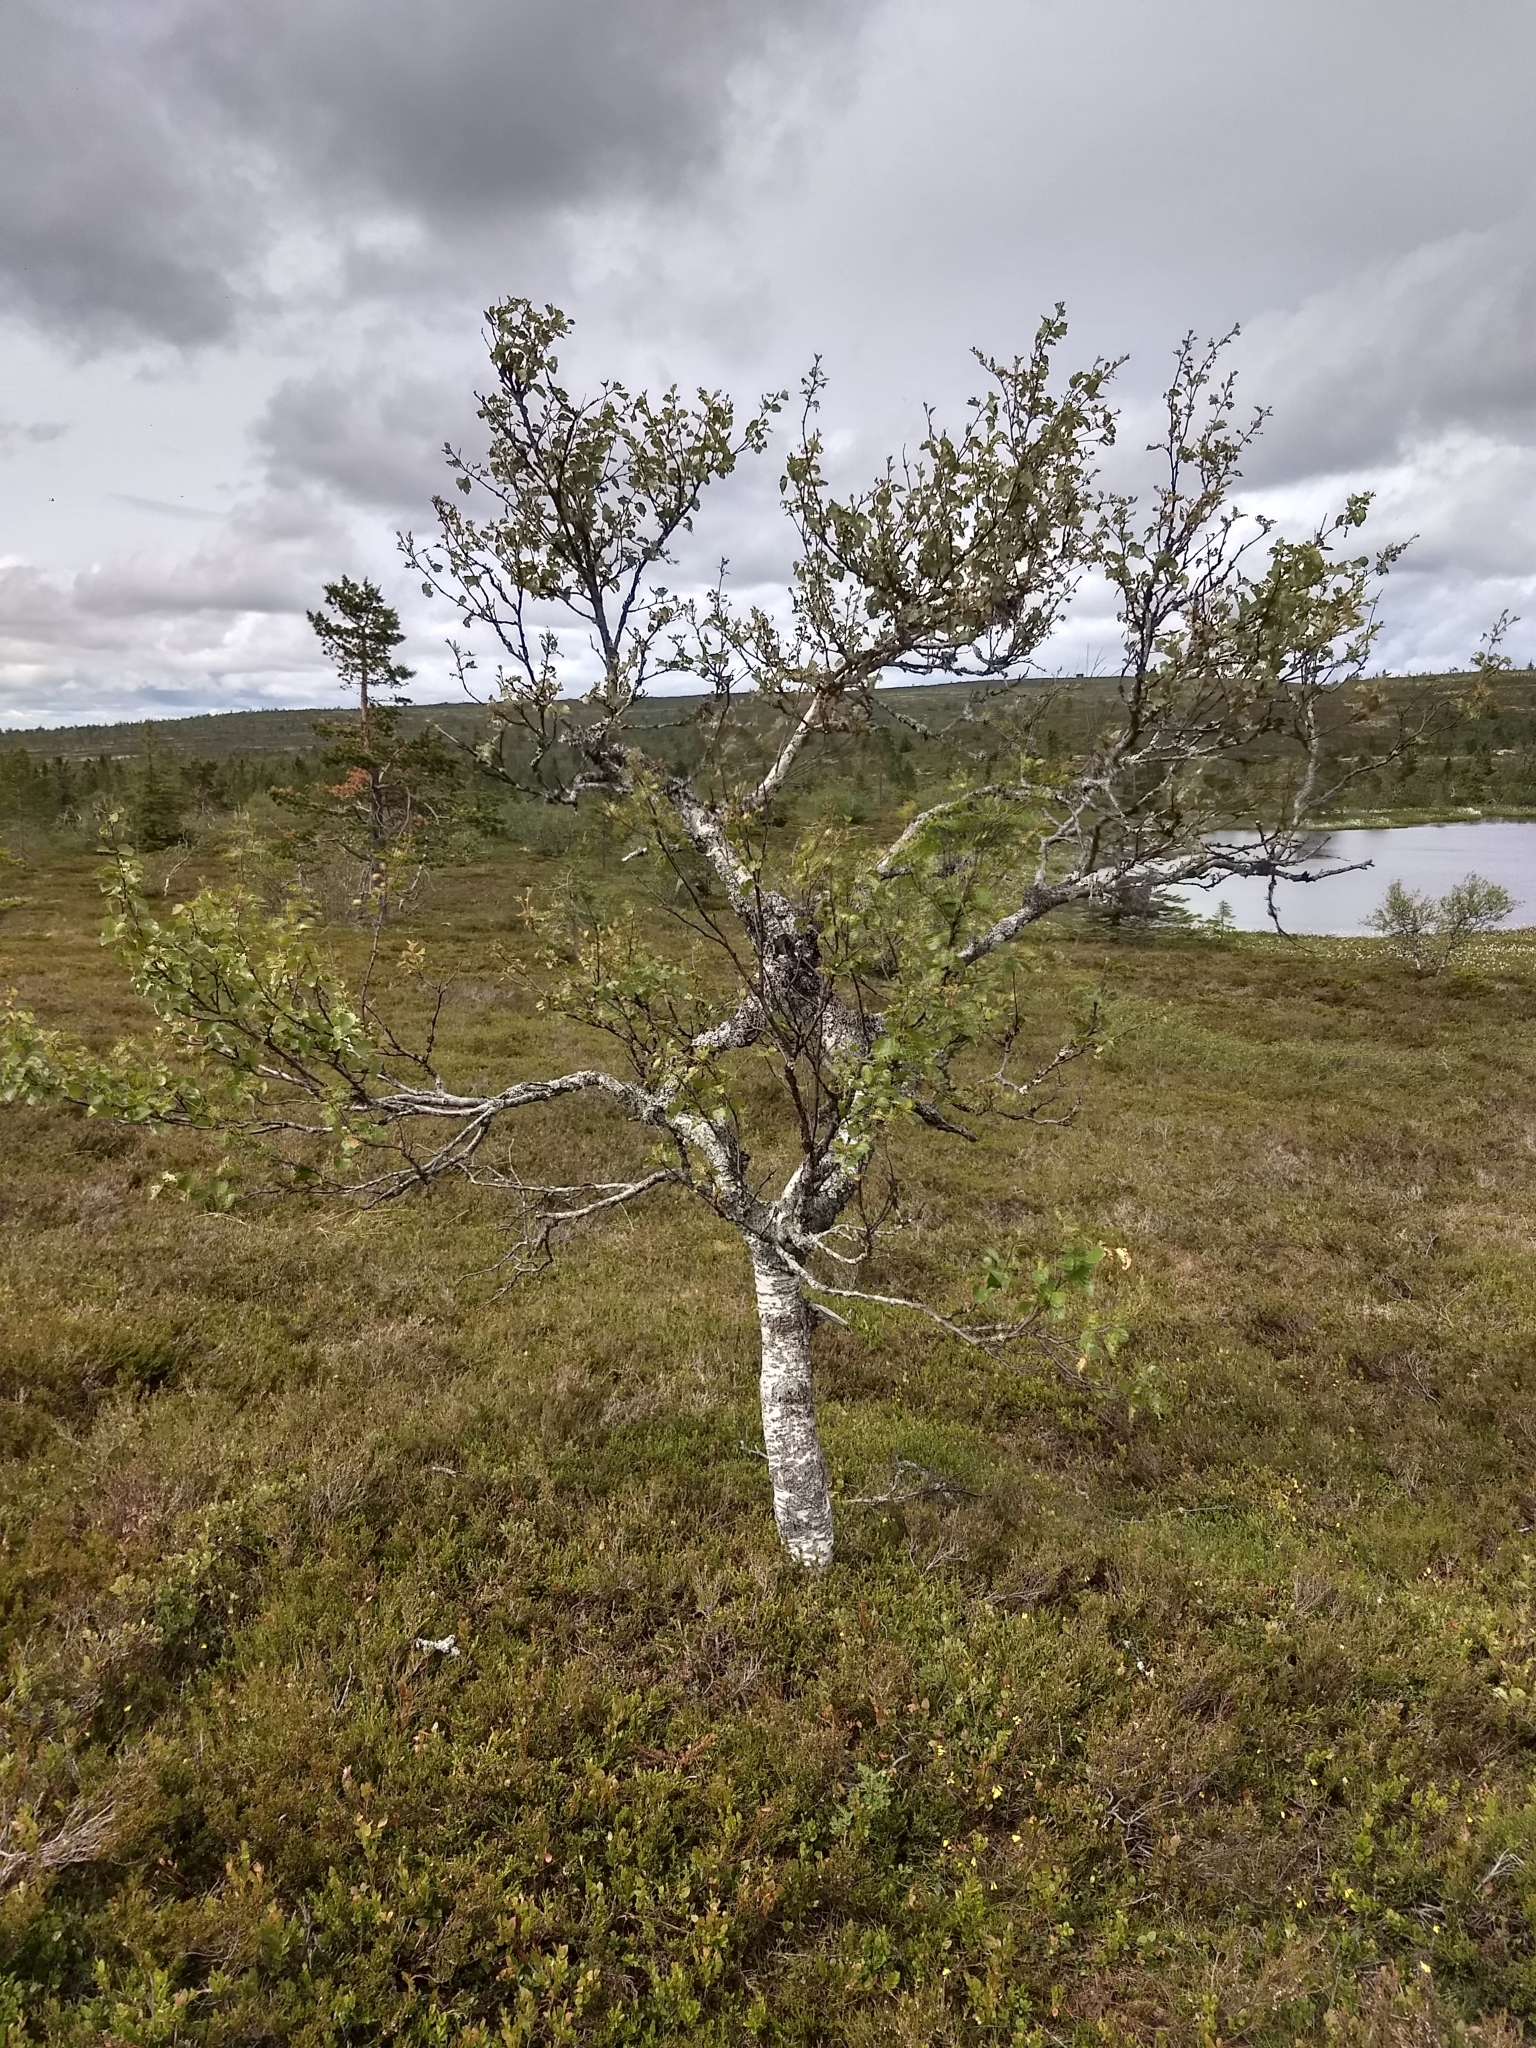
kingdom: Plantae
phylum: Tracheophyta
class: Magnoliopsida
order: Fagales
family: Betulaceae
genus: Betula
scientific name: Betula pubescens
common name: Downy birch
